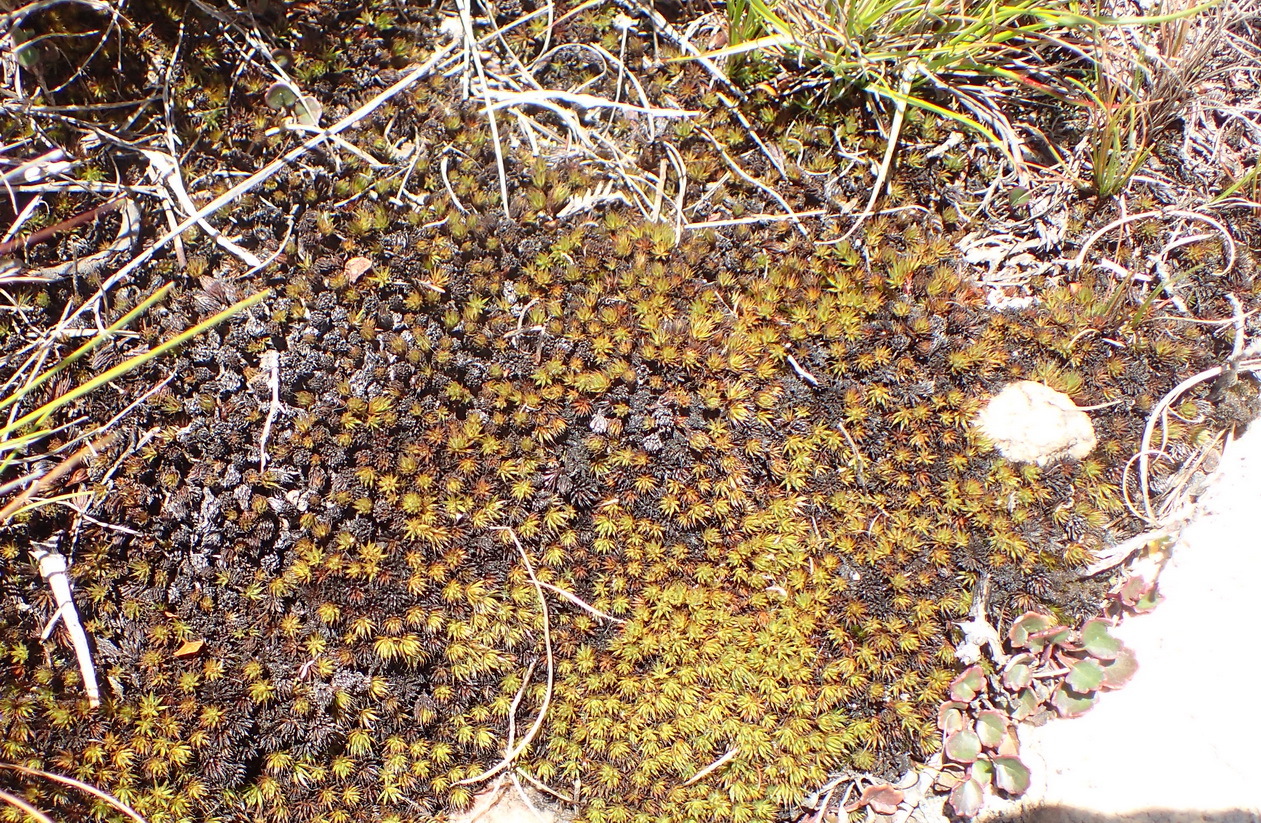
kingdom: Plantae
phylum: Bryophyta
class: Polytrichopsida
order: Polytrichales
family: Polytrichaceae
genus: Polytrichum
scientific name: Polytrichum piliferum
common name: Bristly haircap
